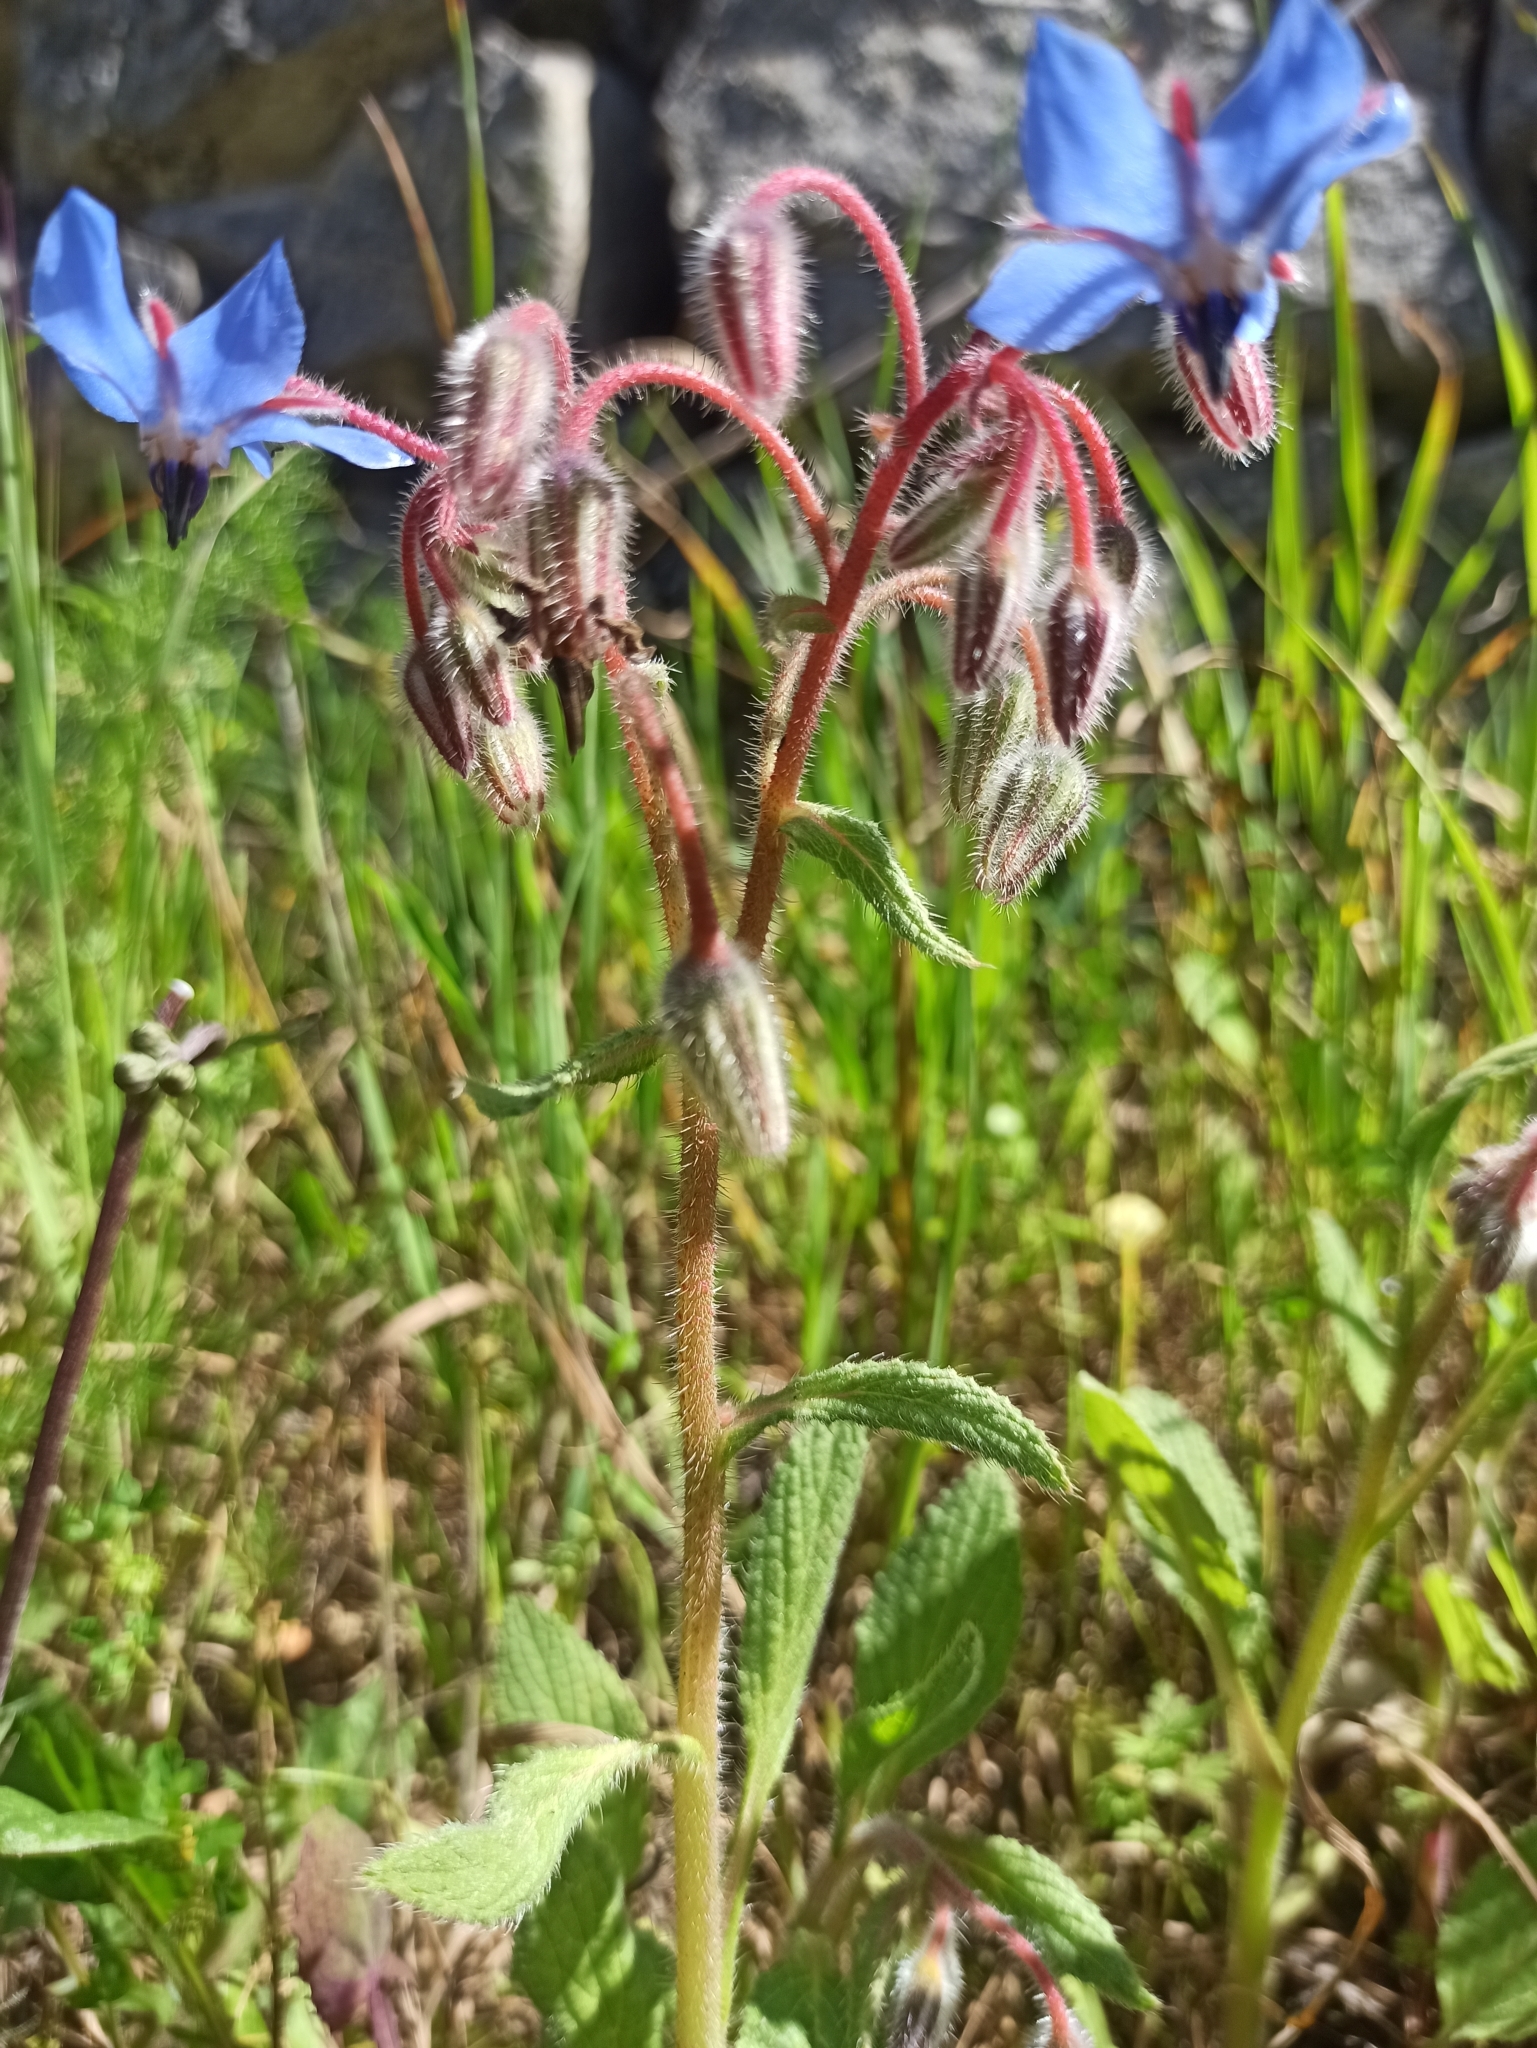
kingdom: Plantae
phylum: Tracheophyta
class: Magnoliopsida
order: Boraginales
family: Boraginaceae
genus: Borago
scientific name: Borago officinalis
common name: Borage
